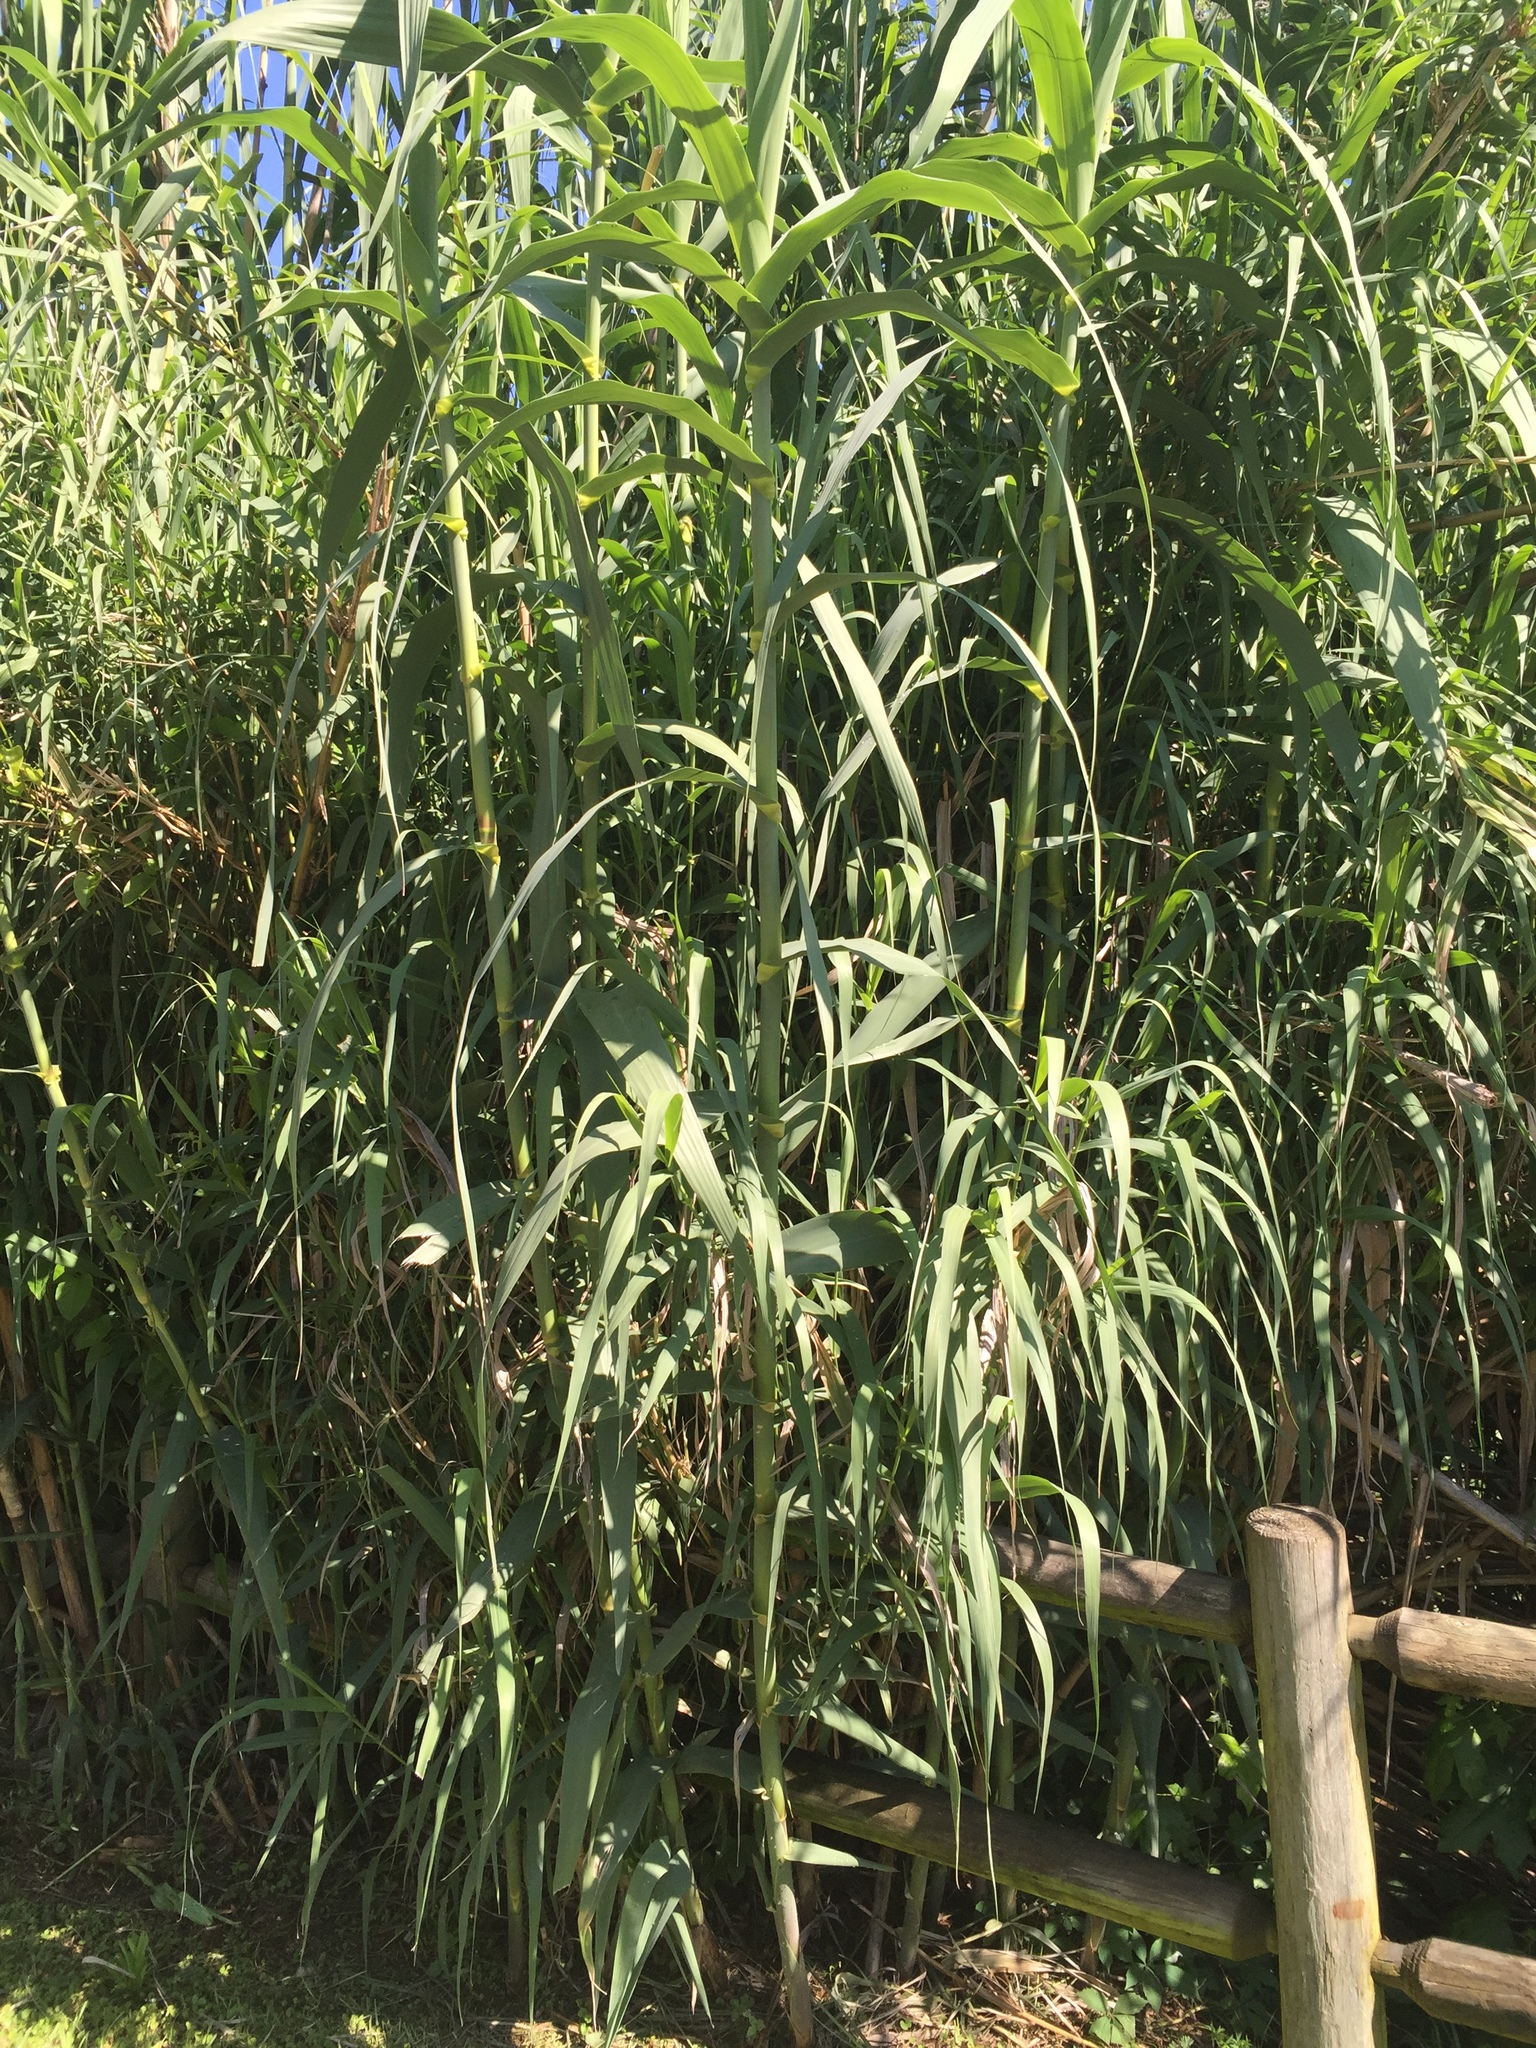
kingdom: Plantae
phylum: Tracheophyta
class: Liliopsida
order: Poales
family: Poaceae
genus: Arundo
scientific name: Arundo donax
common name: Giant reed
